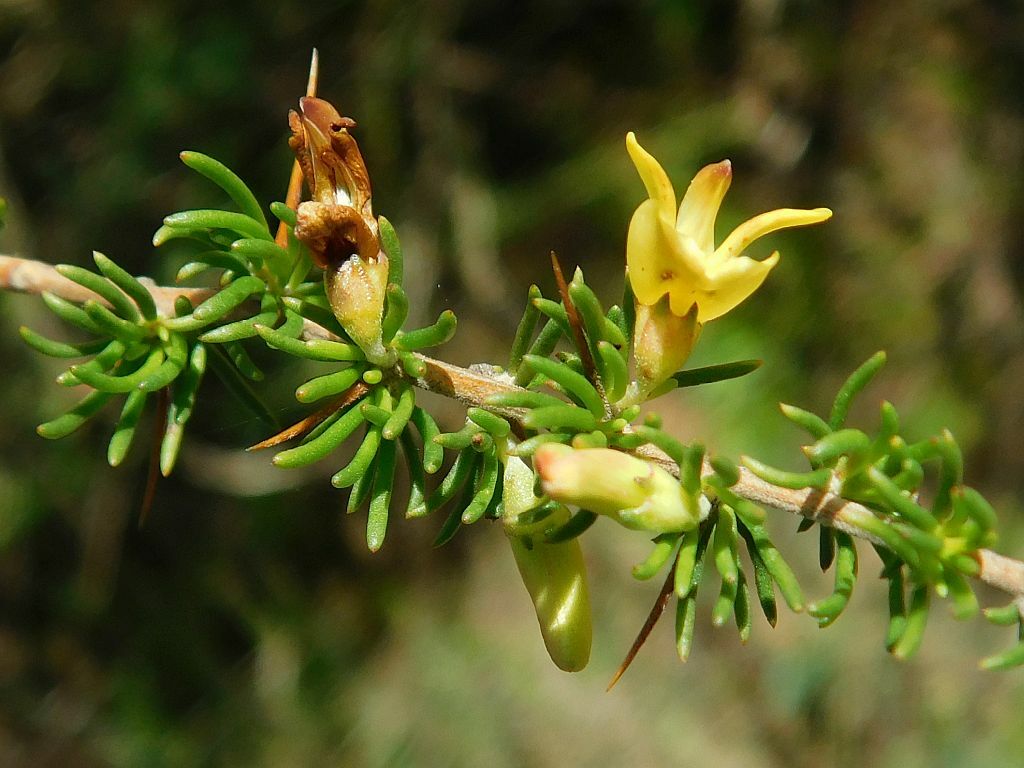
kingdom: Plantae
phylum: Tracheophyta
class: Magnoliopsida
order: Fabales
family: Fabaceae
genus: Aspalathus
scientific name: Aspalathus spinosa
